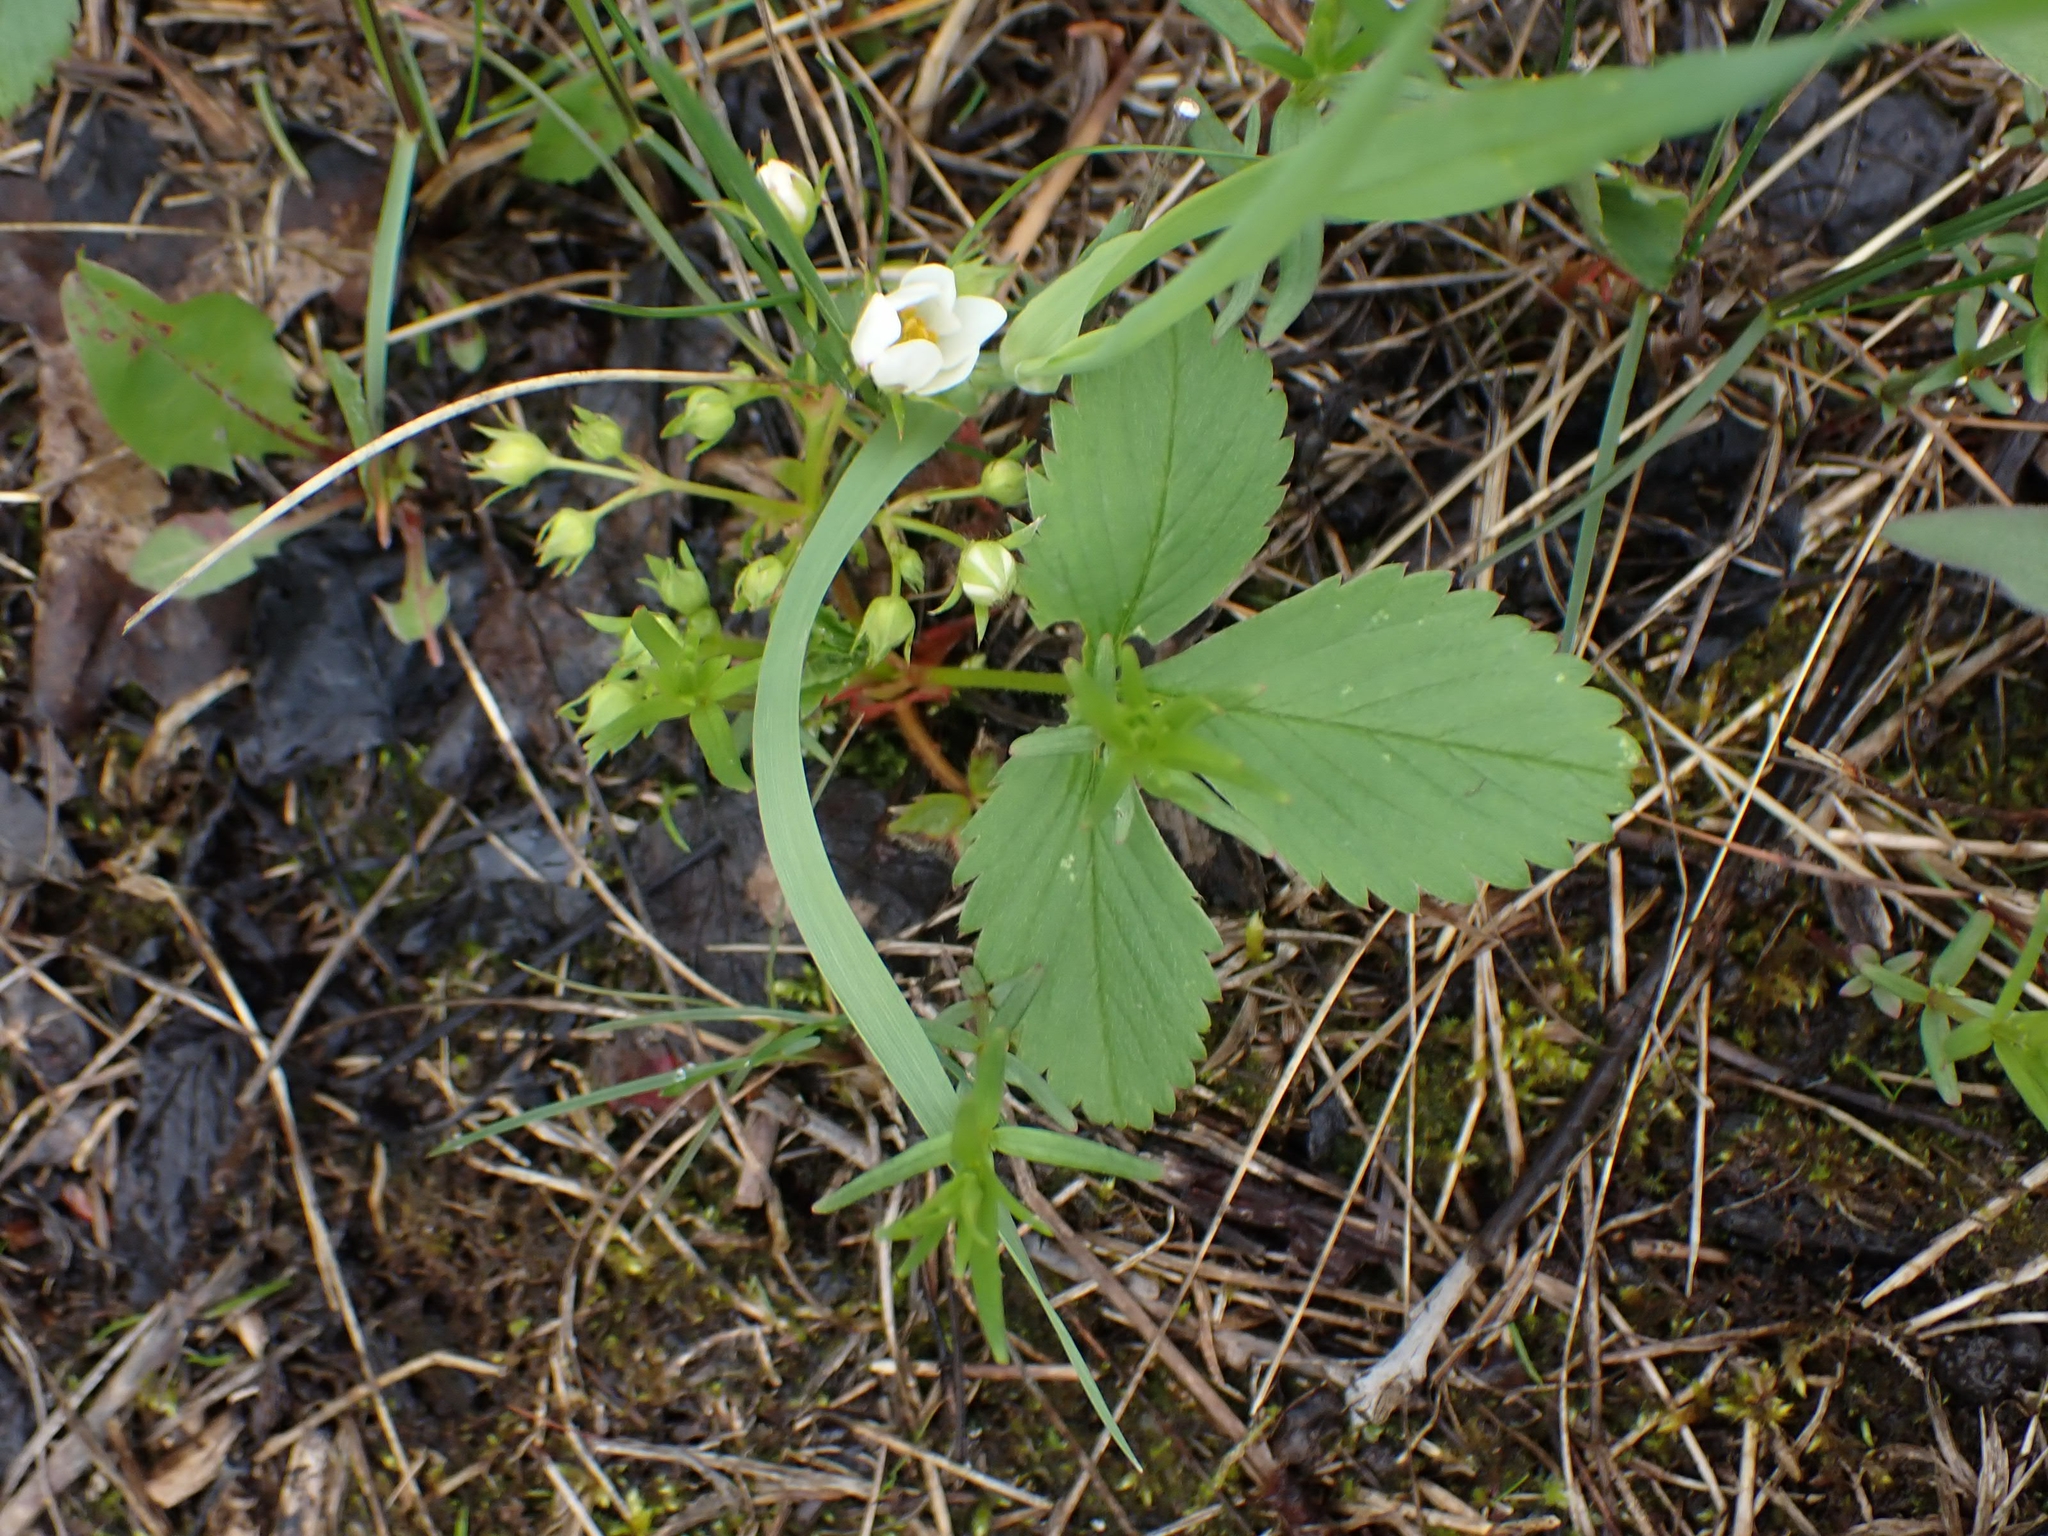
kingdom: Plantae
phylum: Tracheophyta
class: Magnoliopsida
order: Rosales
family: Rosaceae
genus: Fragaria
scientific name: Fragaria virginiana
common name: Thickleaved wild strawberry
